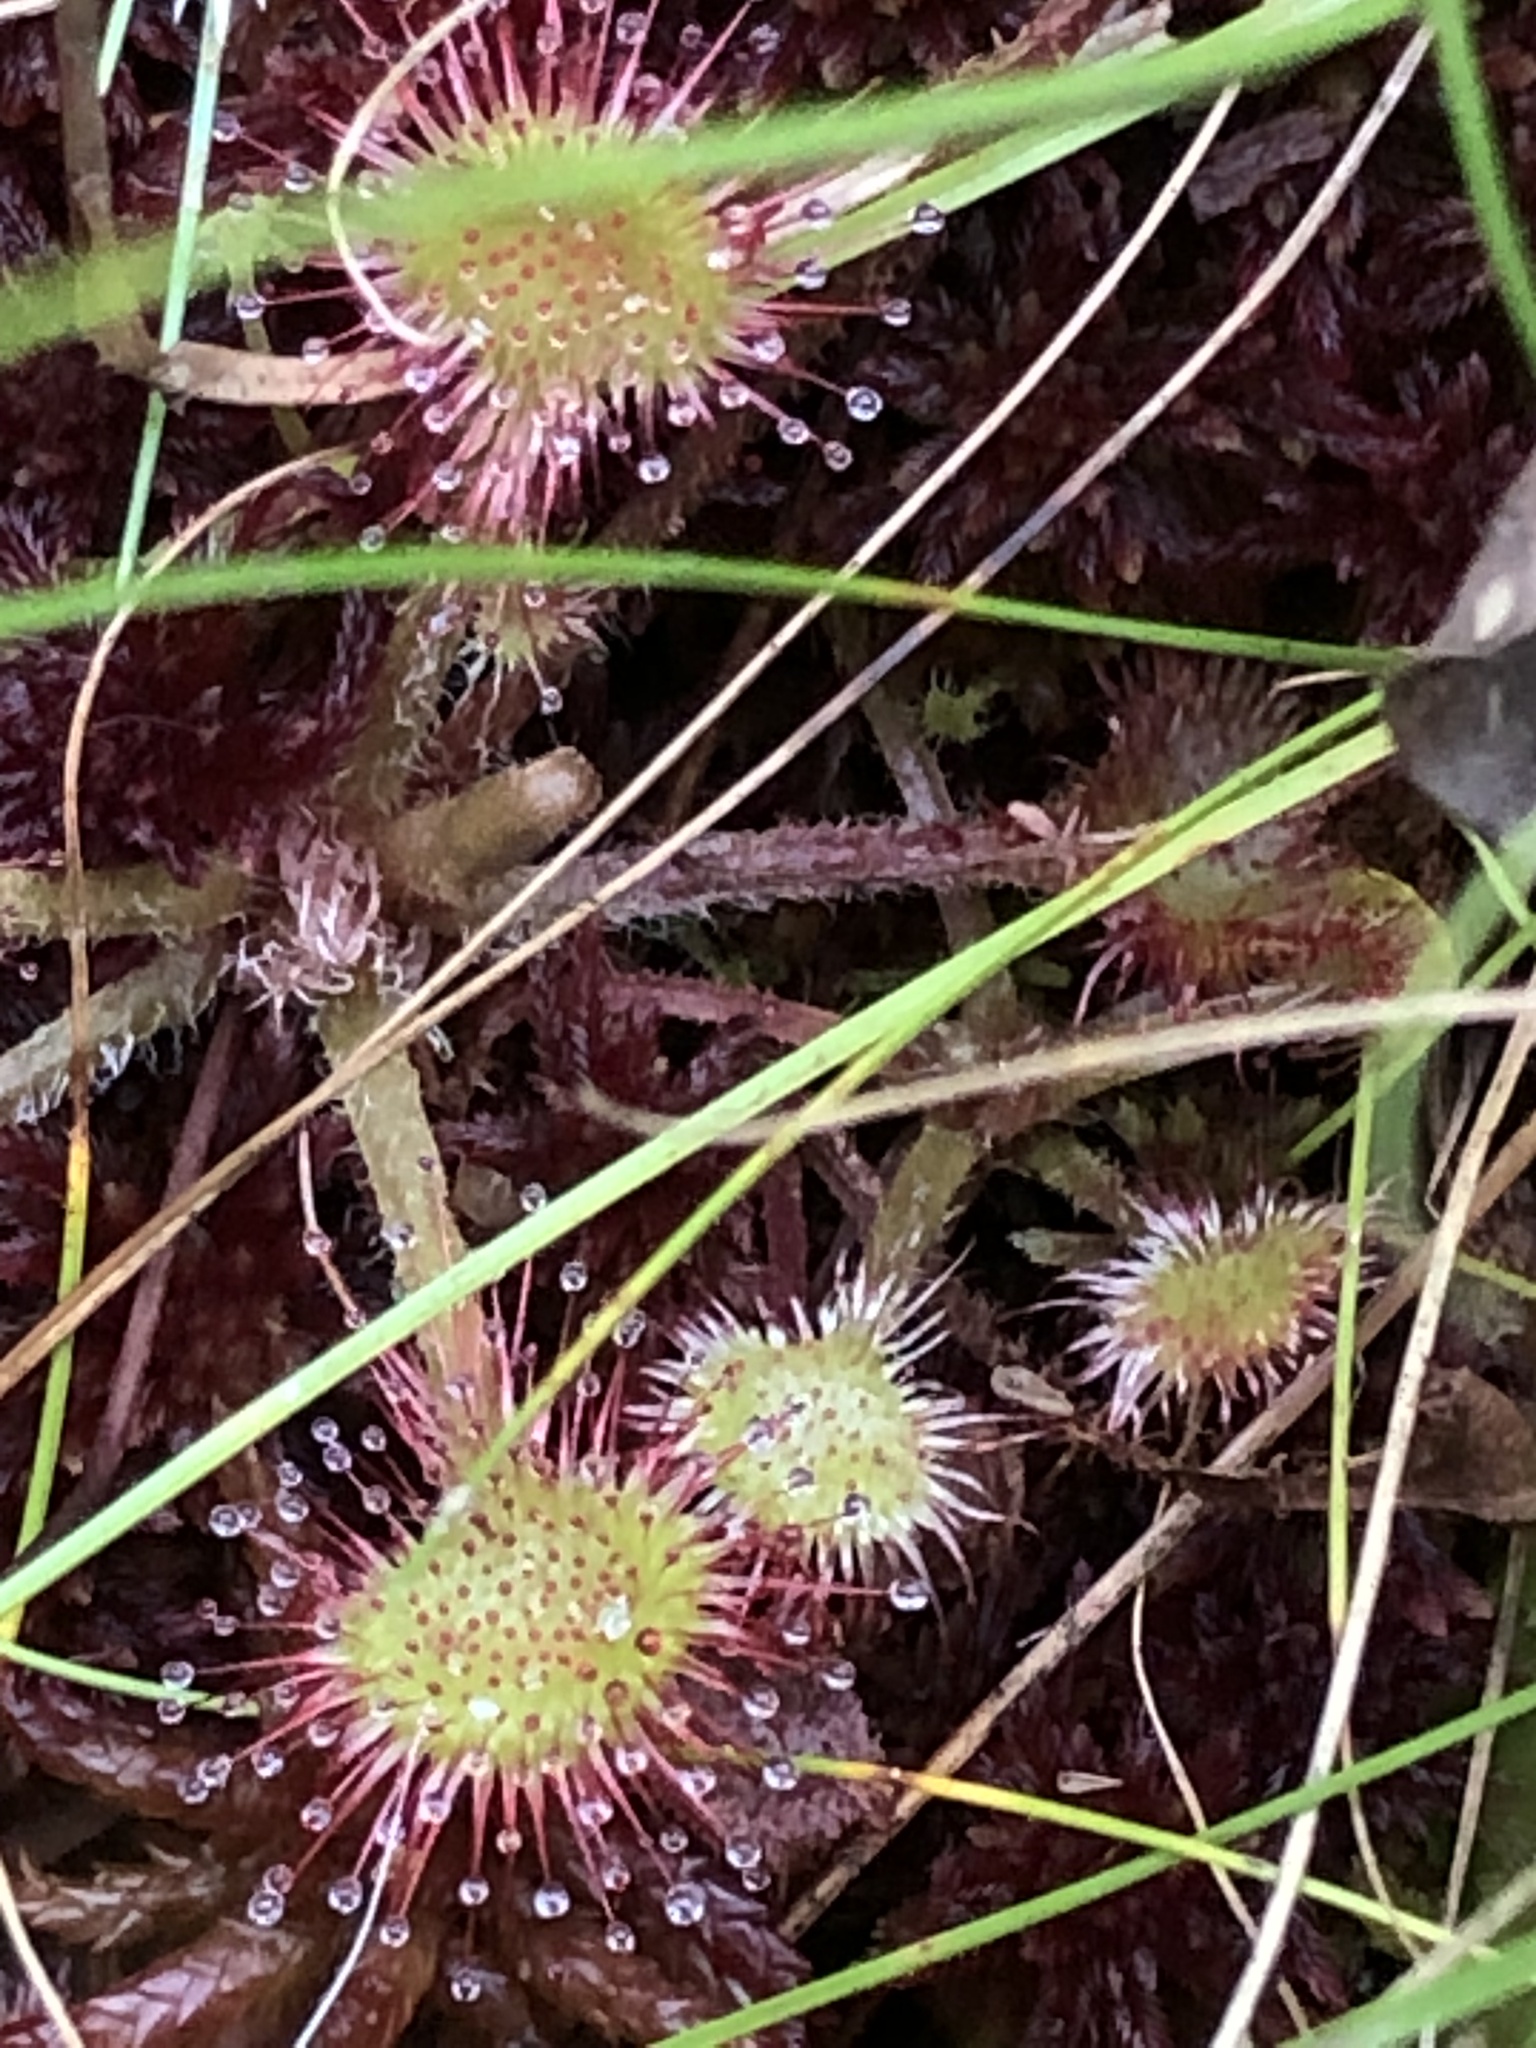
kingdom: Plantae
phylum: Tracheophyta
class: Magnoliopsida
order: Caryophyllales
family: Droseraceae
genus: Drosera
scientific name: Drosera rotundifolia
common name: Round-leaved sundew
